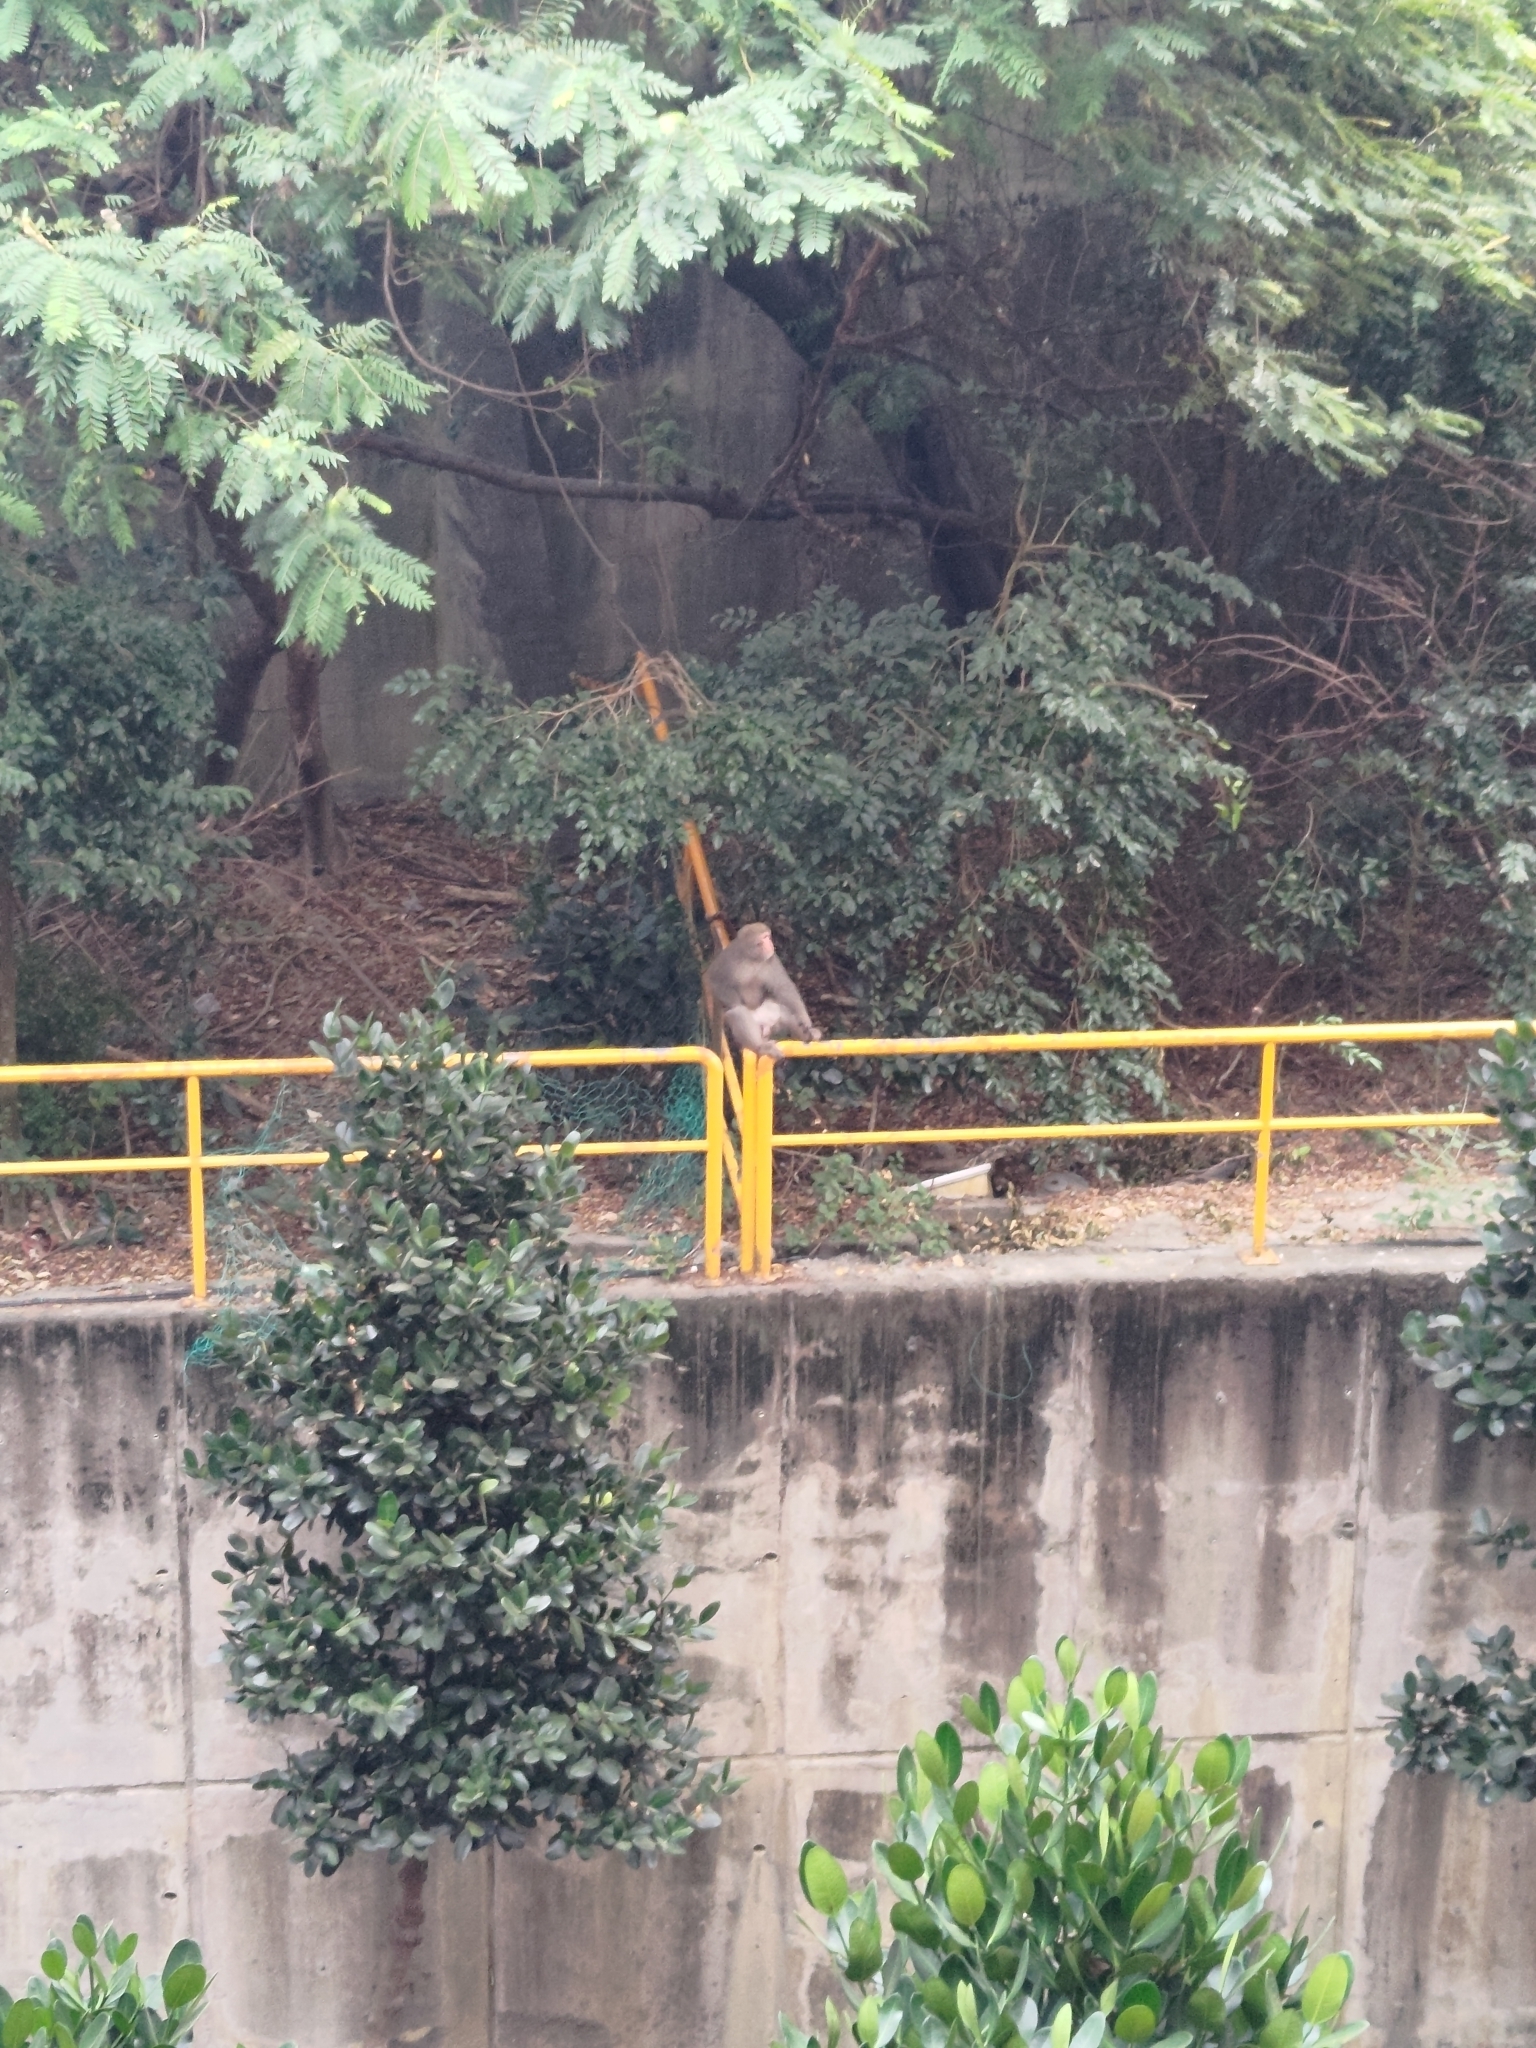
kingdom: Animalia
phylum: Chordata
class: Mammalia
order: Primates
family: Cercopithecidae
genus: Macaca
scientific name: Macaca cyclopis
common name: Formosan rock macaque
